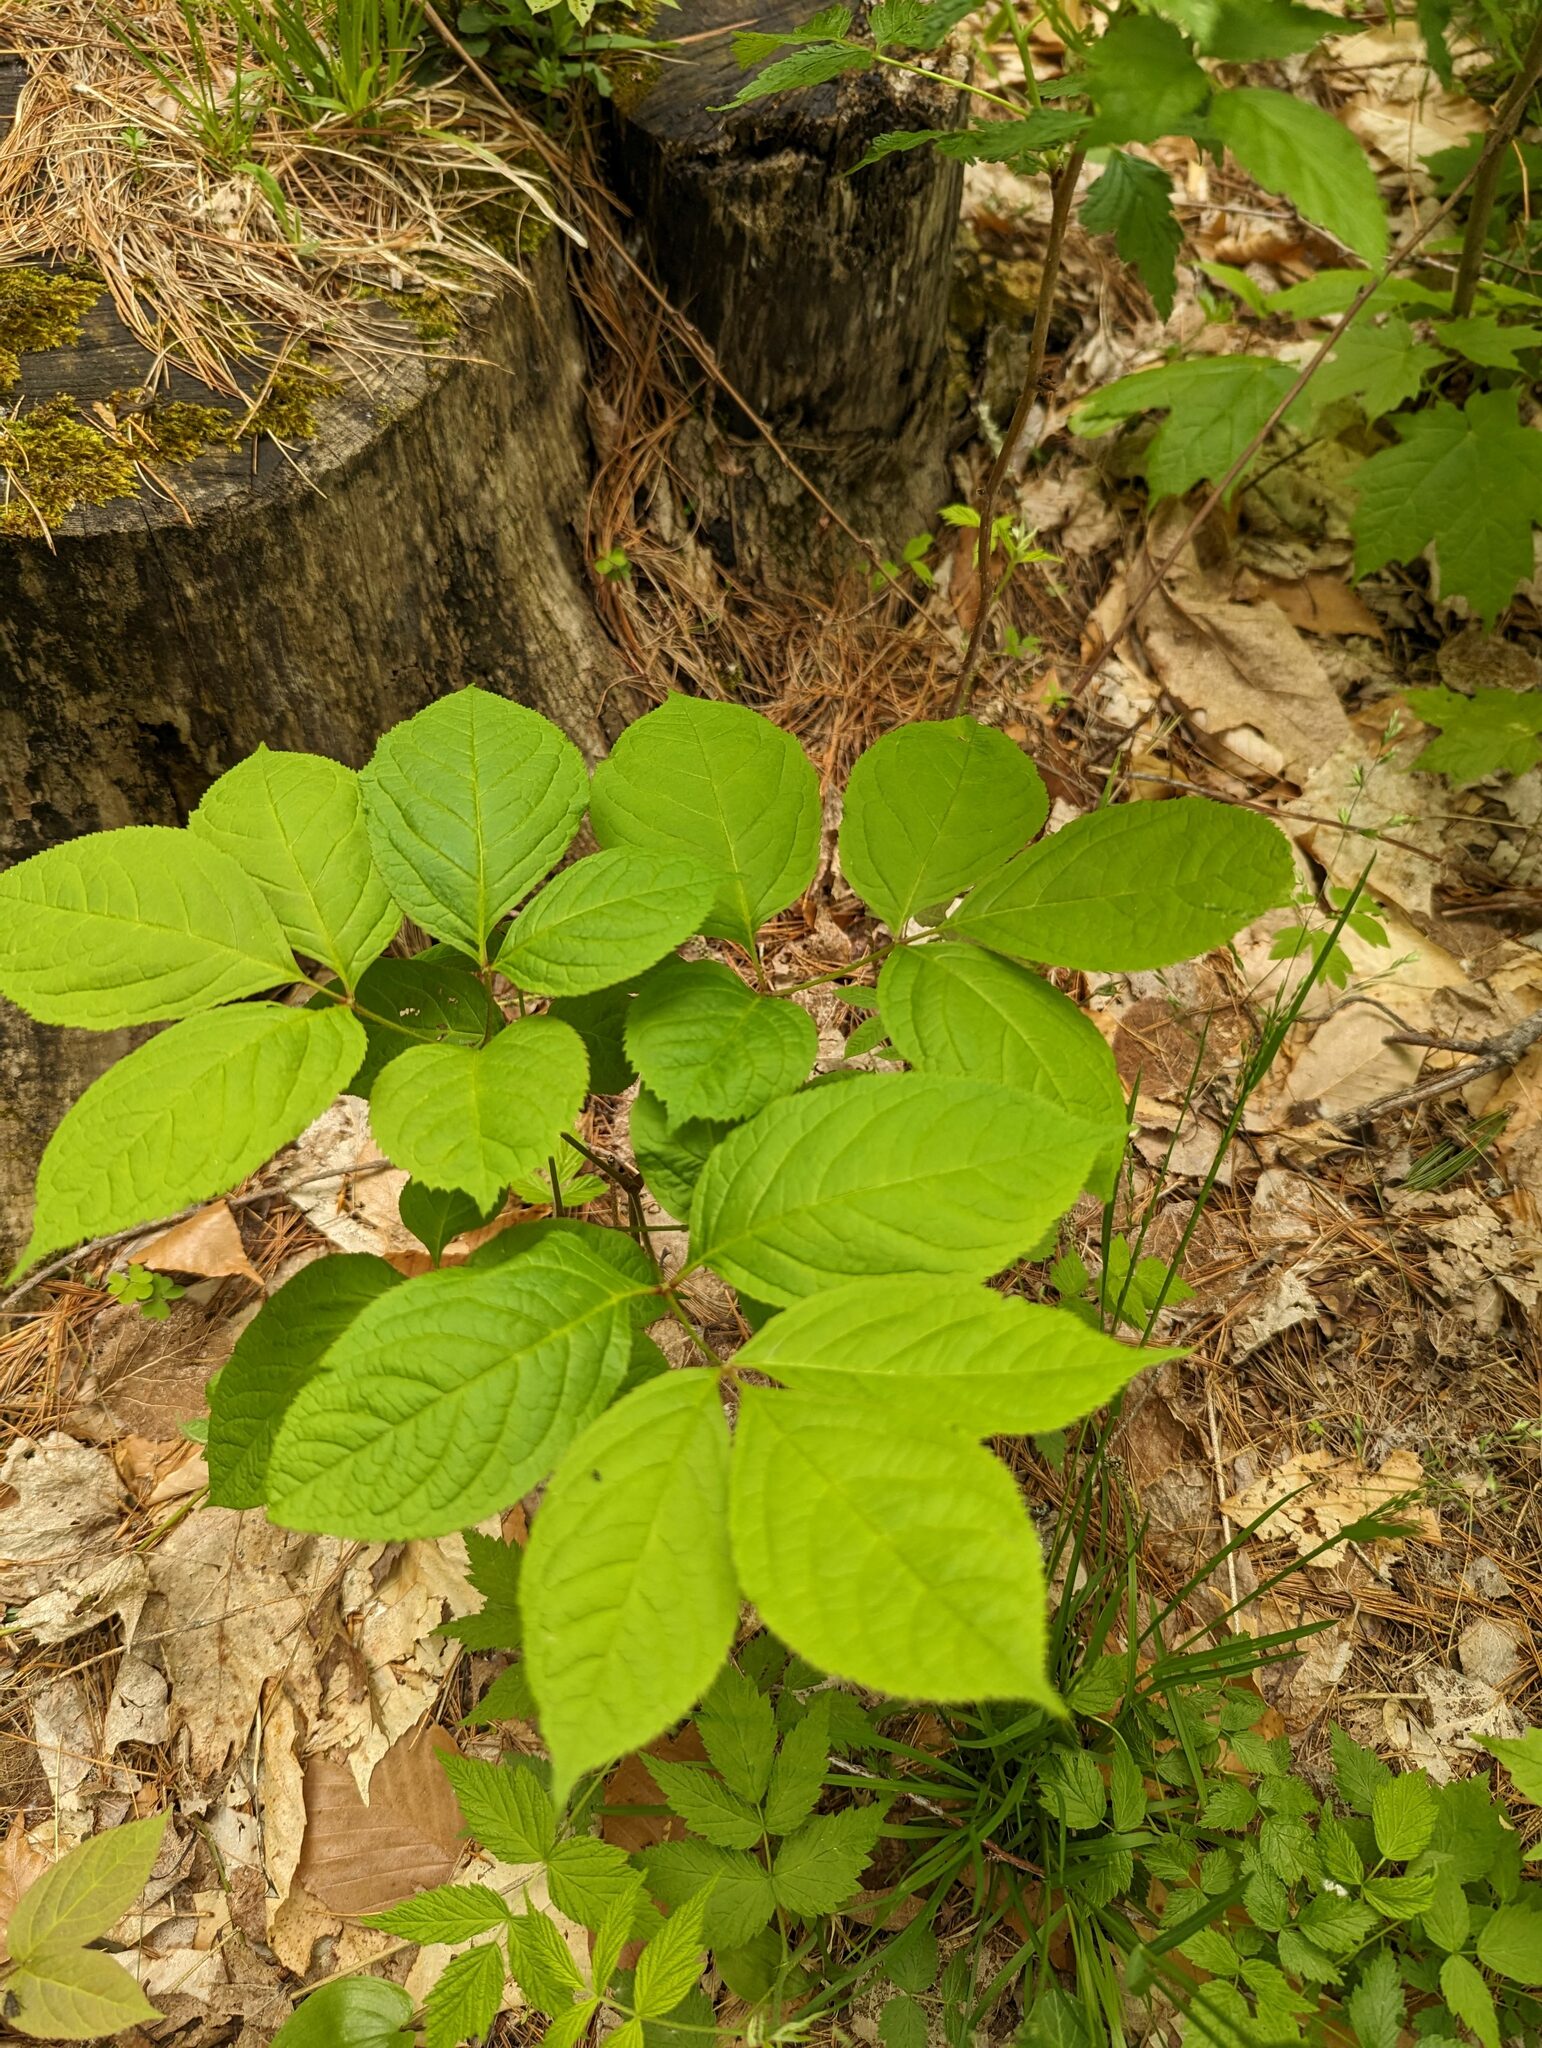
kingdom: Plantae
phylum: Tracheophyta
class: Magnoliopsida
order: Apiales
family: Araliaceae
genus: Aralia
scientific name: Aralia nudicaulis
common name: Wild sarsaparilla
